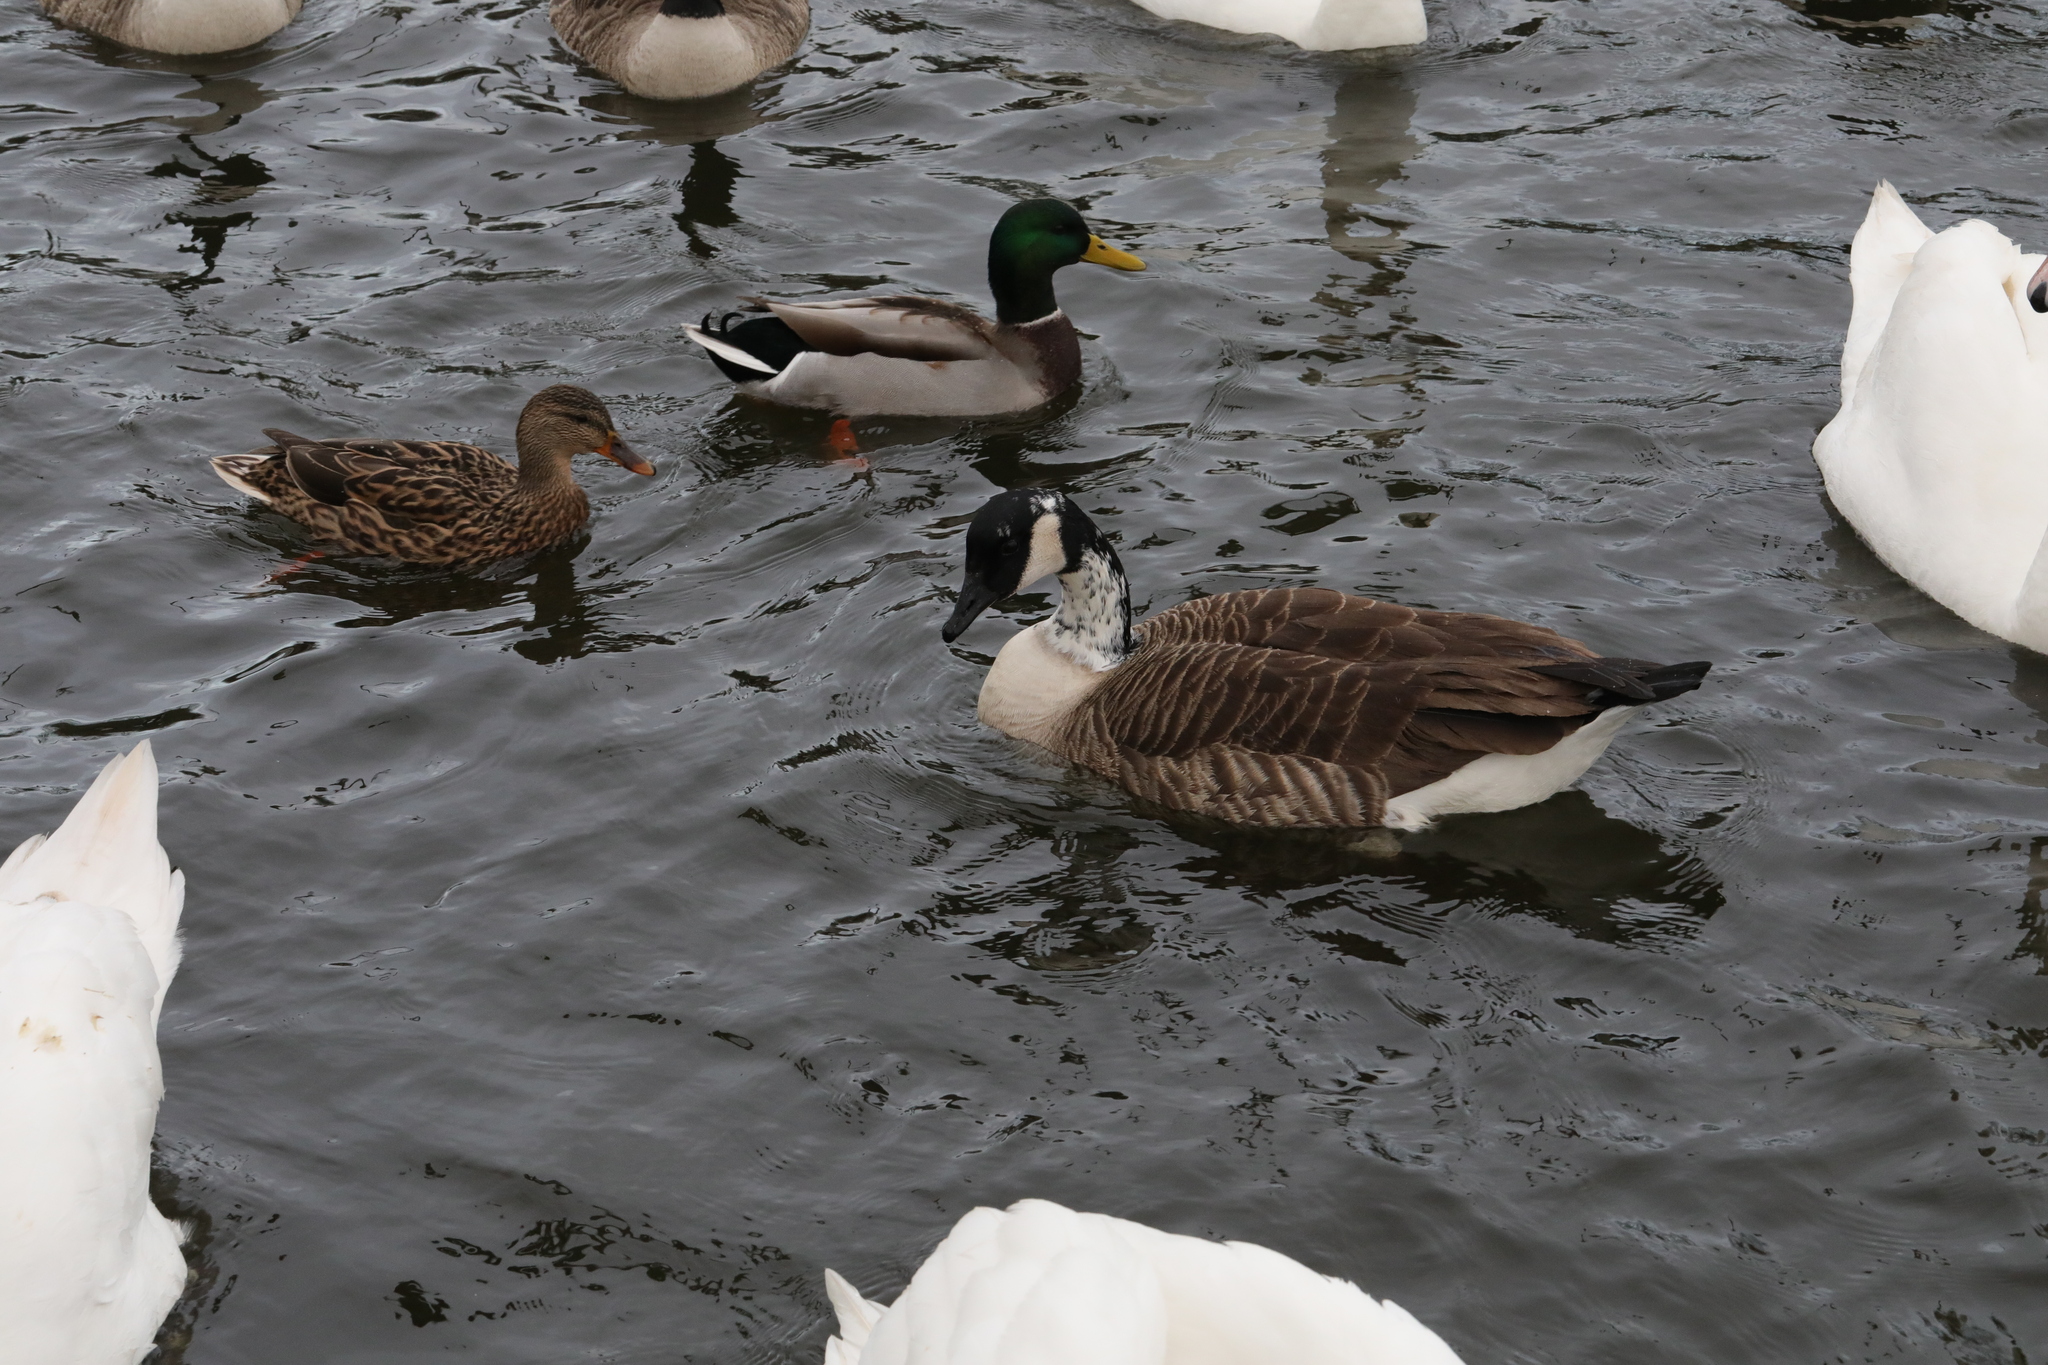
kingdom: Animalia
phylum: Chordata
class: Aves
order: Anseriformes
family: Anatidae
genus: Branta
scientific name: Branta canadensis
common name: Canada goose
